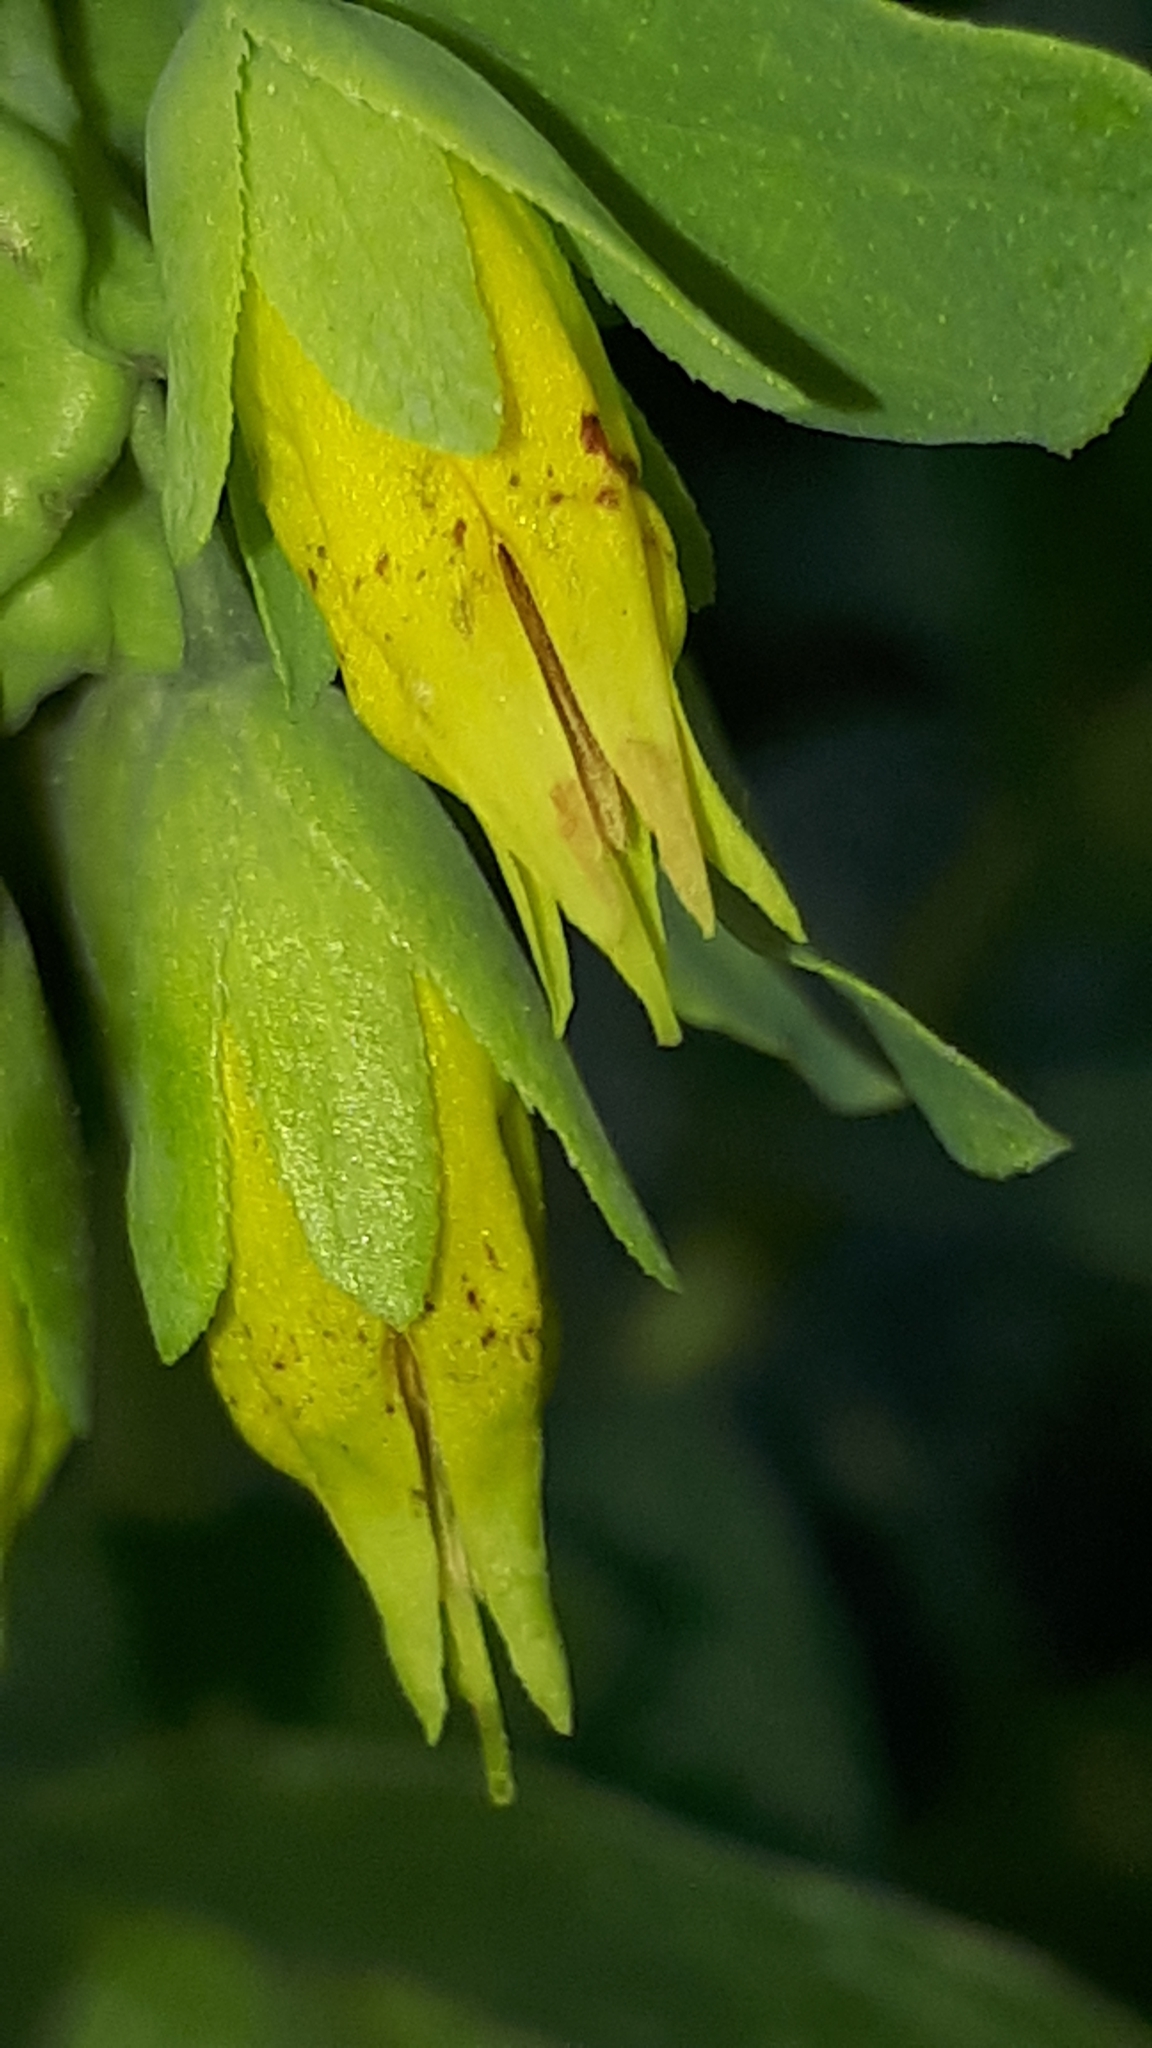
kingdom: Plantae
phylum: Tracheophyta
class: Magnoliopsida
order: Boraginales
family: Boraginaceae
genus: Cerinthe
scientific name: Cerinthe minor
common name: Lesser honeywort
